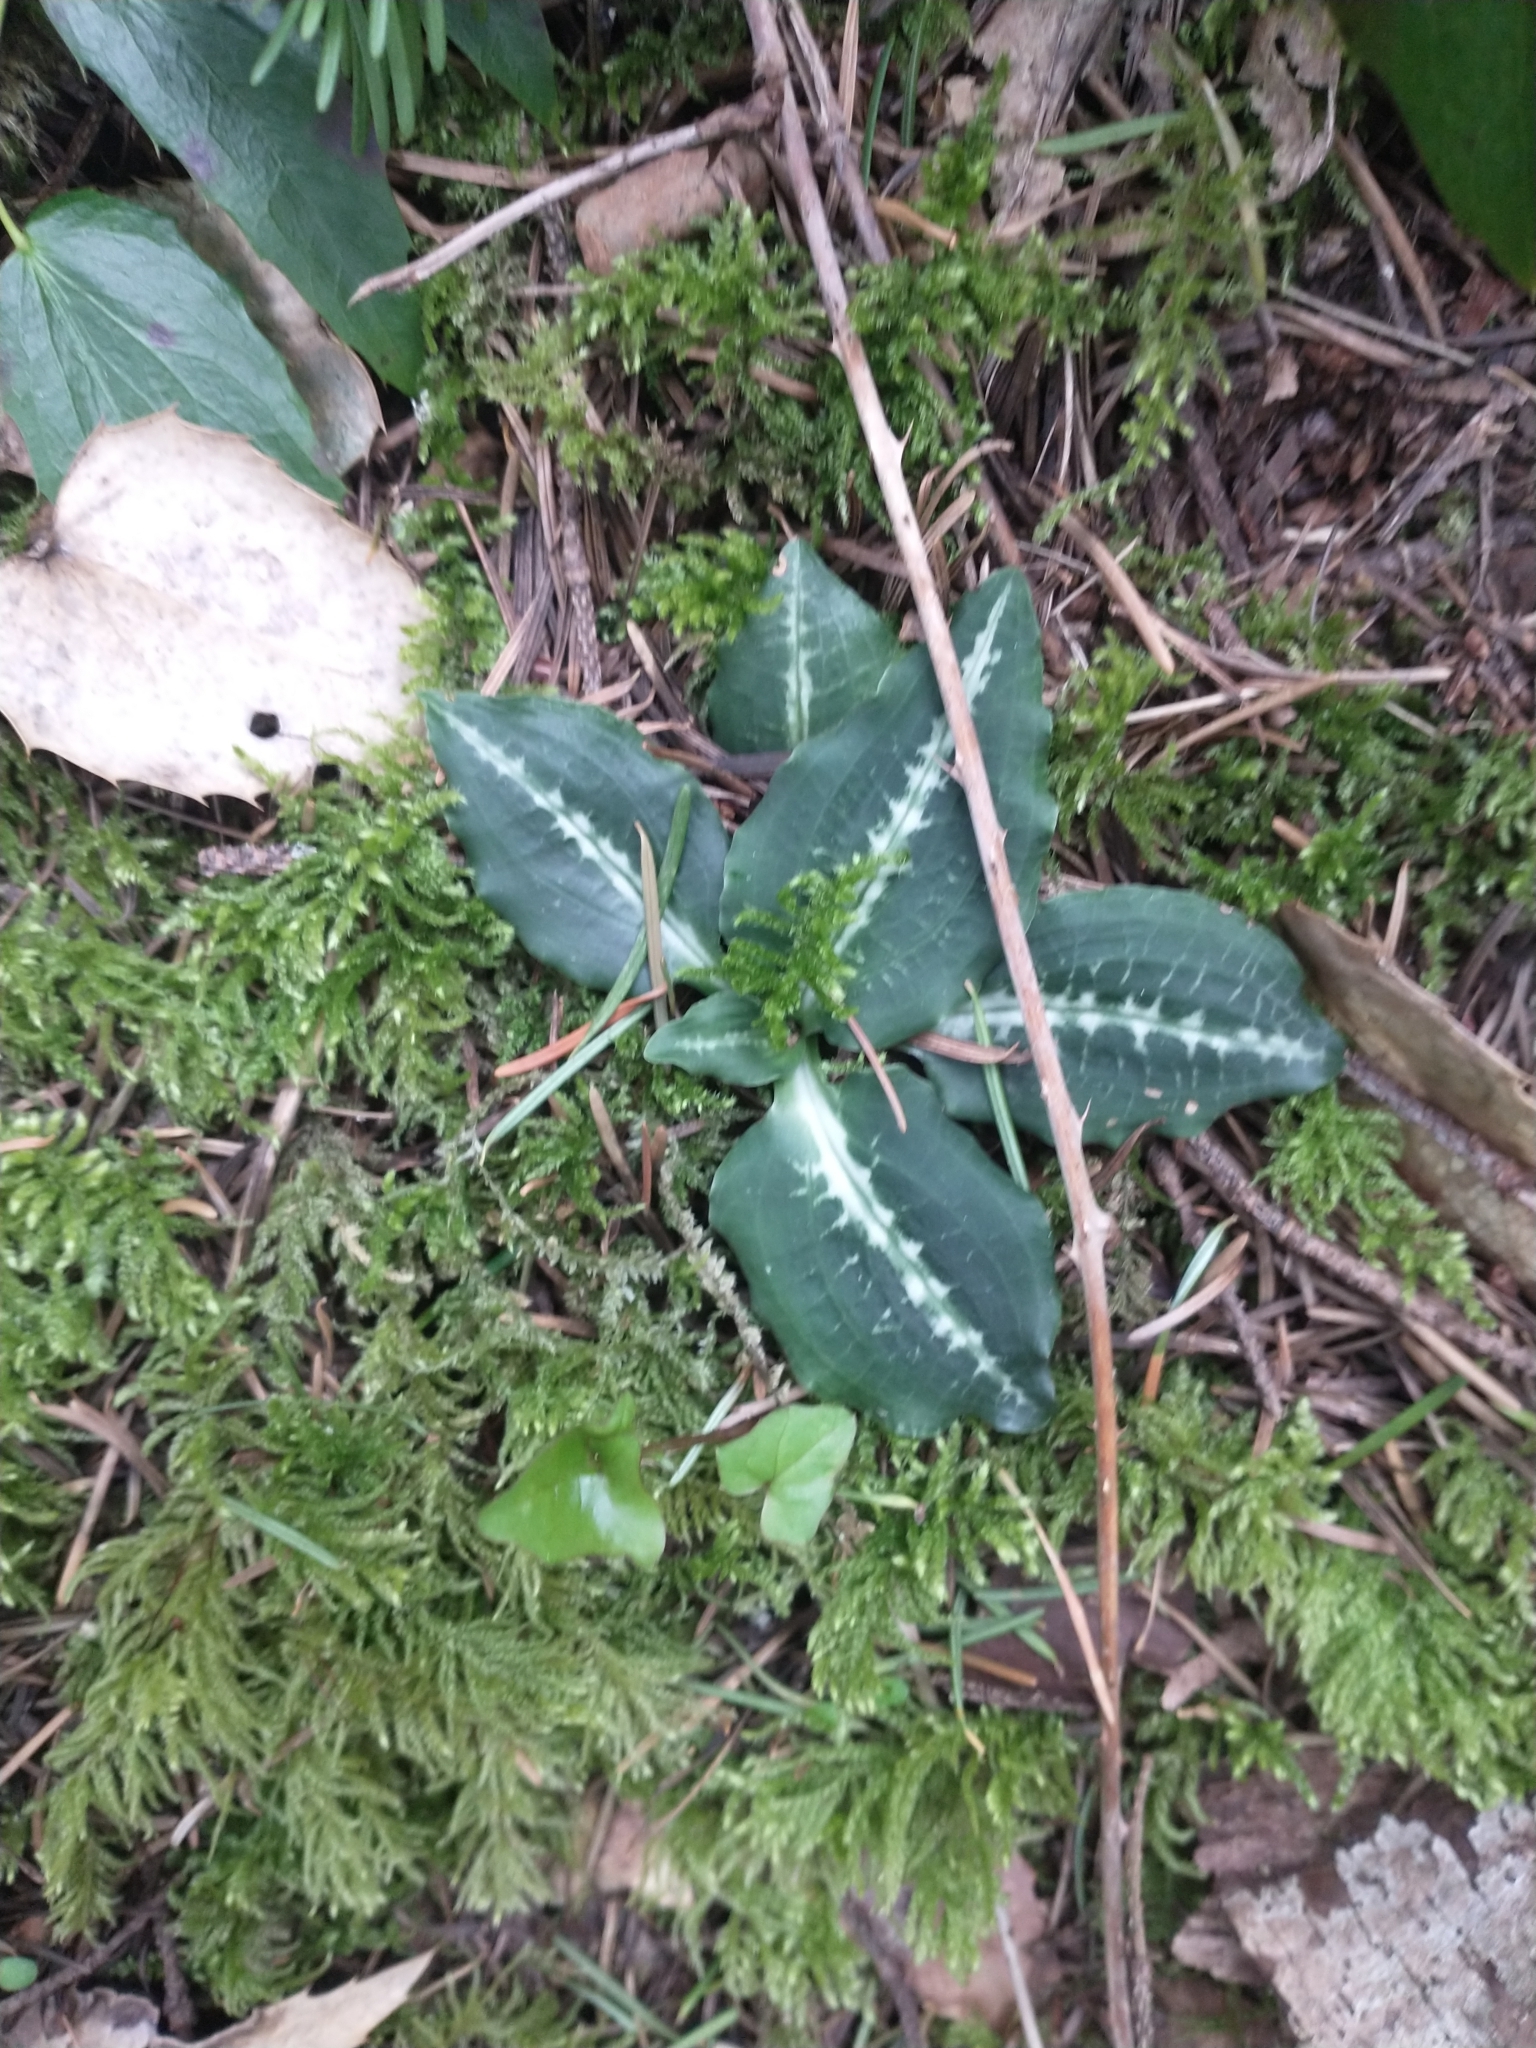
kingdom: Plantae
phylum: Tracheophyta
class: Liliopsida
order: Asparagales
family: Orchidaceae
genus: Goodyera
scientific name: Goodyera oblongifolia
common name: Giant rattlesnake-plantain
